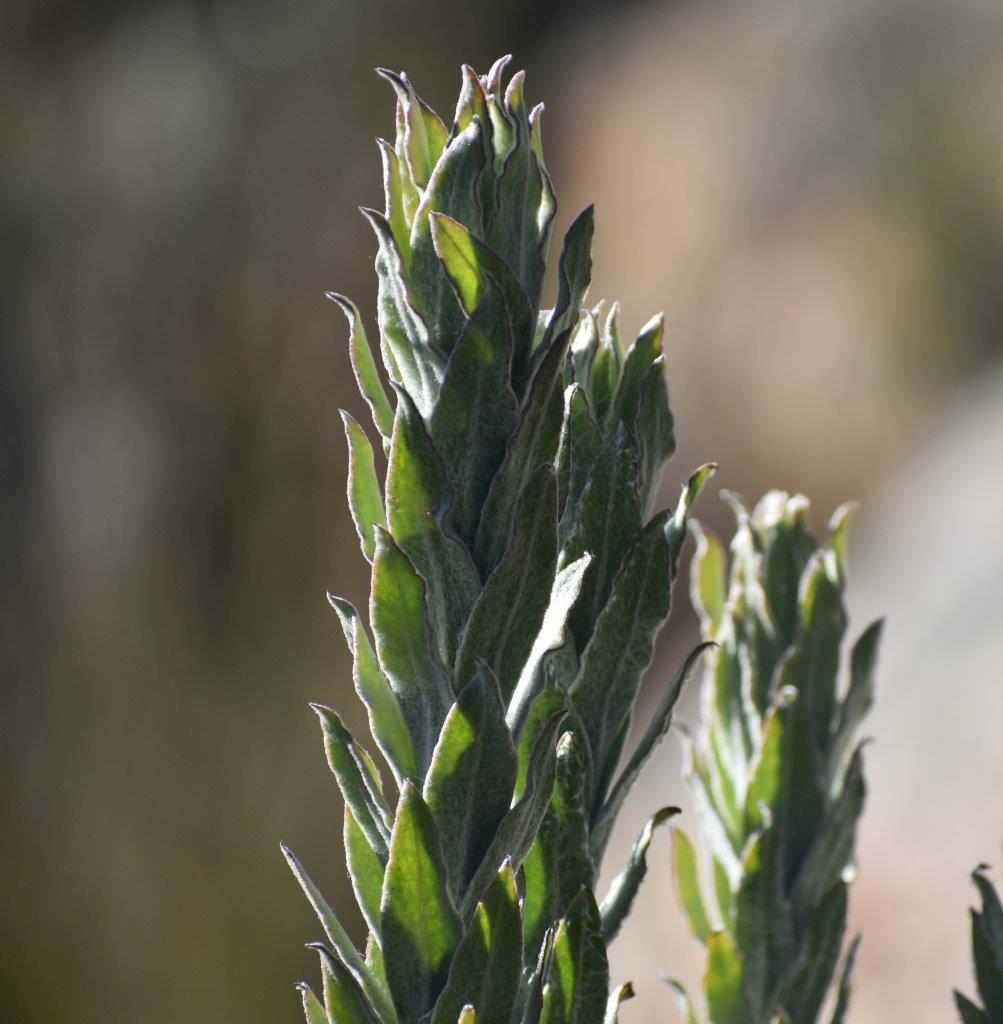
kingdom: Plantae
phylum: Tracheophyta
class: Magnoliopsida
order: Asterales
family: Asteraceae
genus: Syncarpha
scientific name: Syncarpha milleflora
